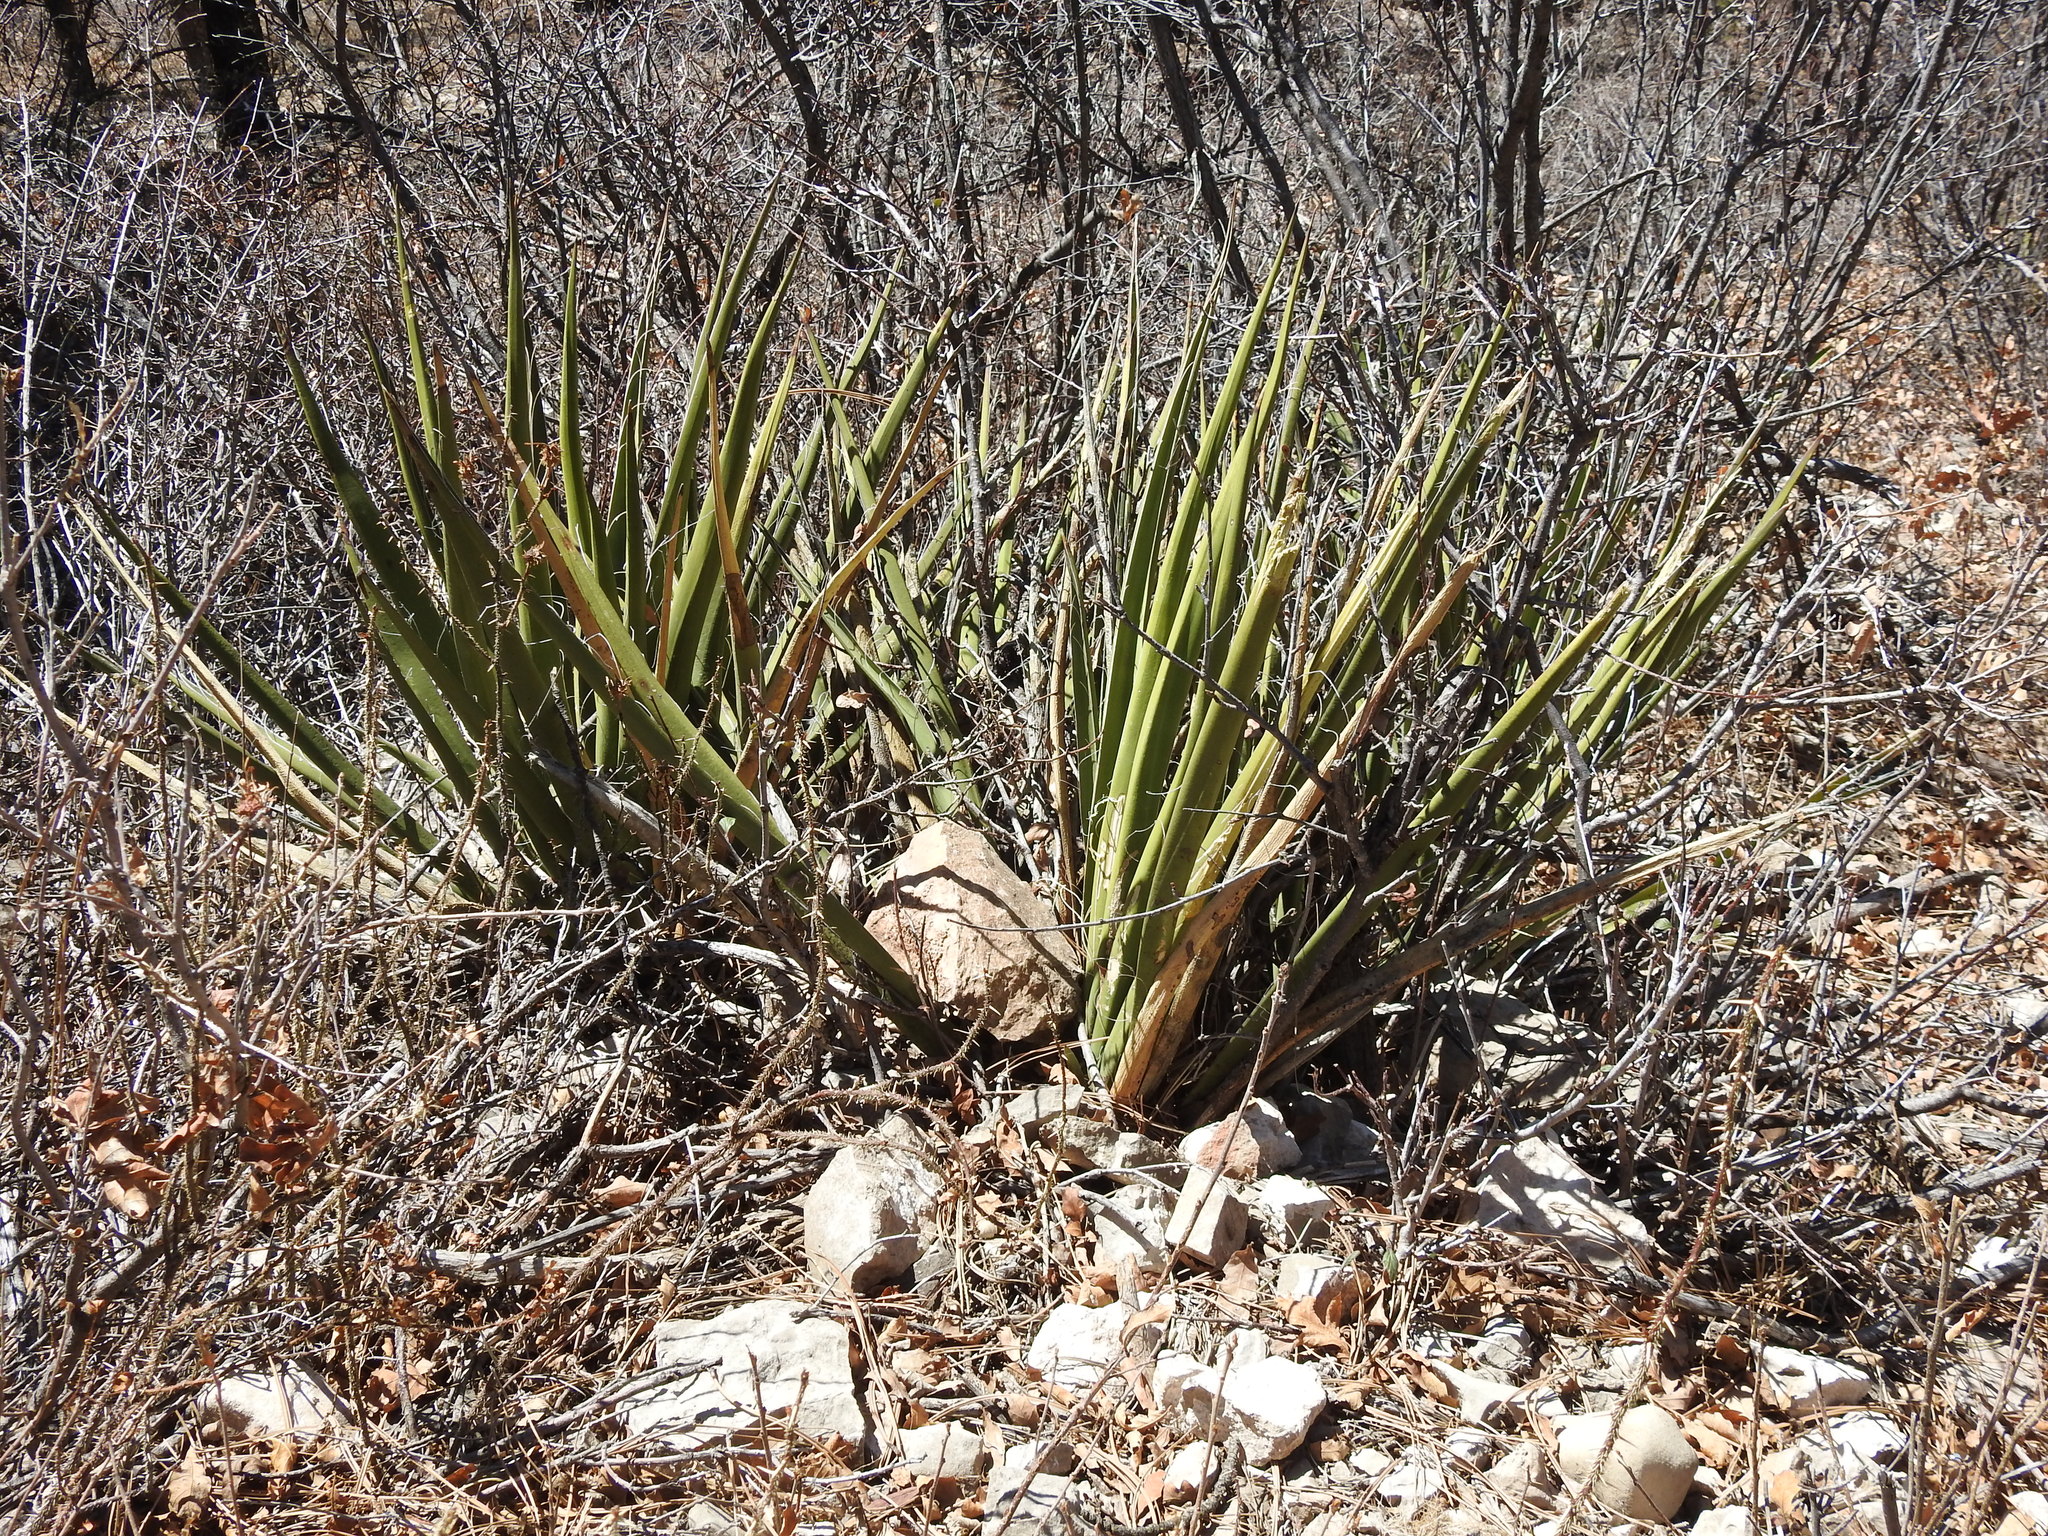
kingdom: Plantae
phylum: Tracheophyta
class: Liliopsida
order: Asparagales
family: Asparagaceae
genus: Agave
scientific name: Agave lechuguilla
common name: Lecheguilla agave
